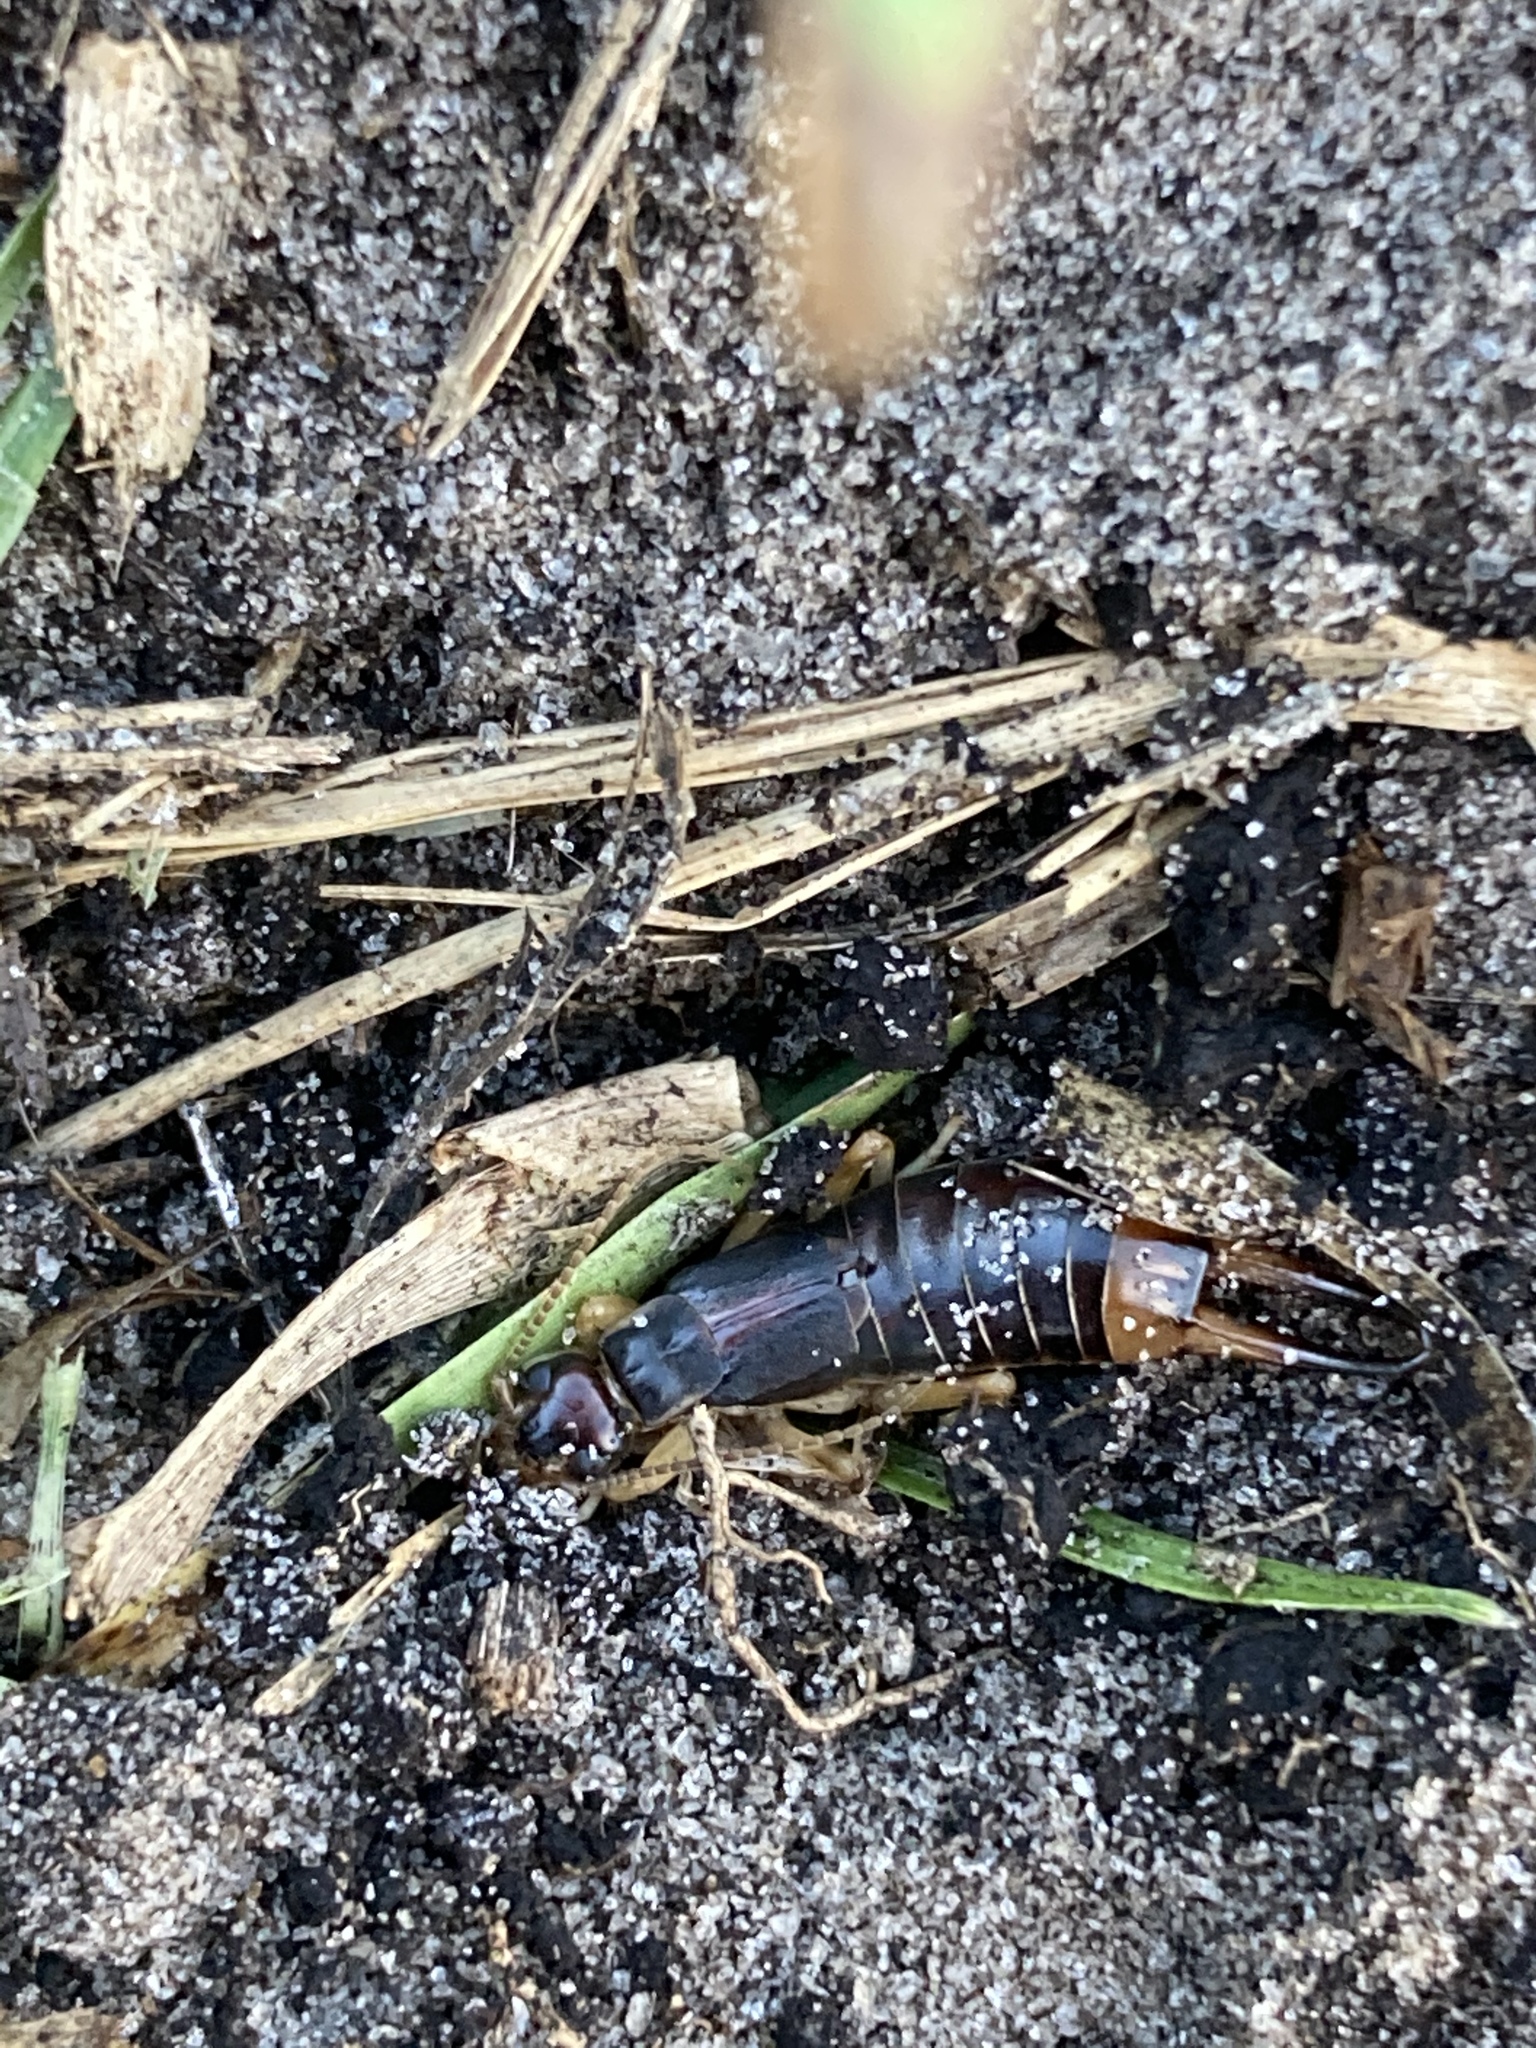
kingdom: Animalia
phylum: Arthropoda
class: Insecta
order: Dermaptera
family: Labiduridae
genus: Labidura
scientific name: Labidura riparia
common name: Striped earwig
